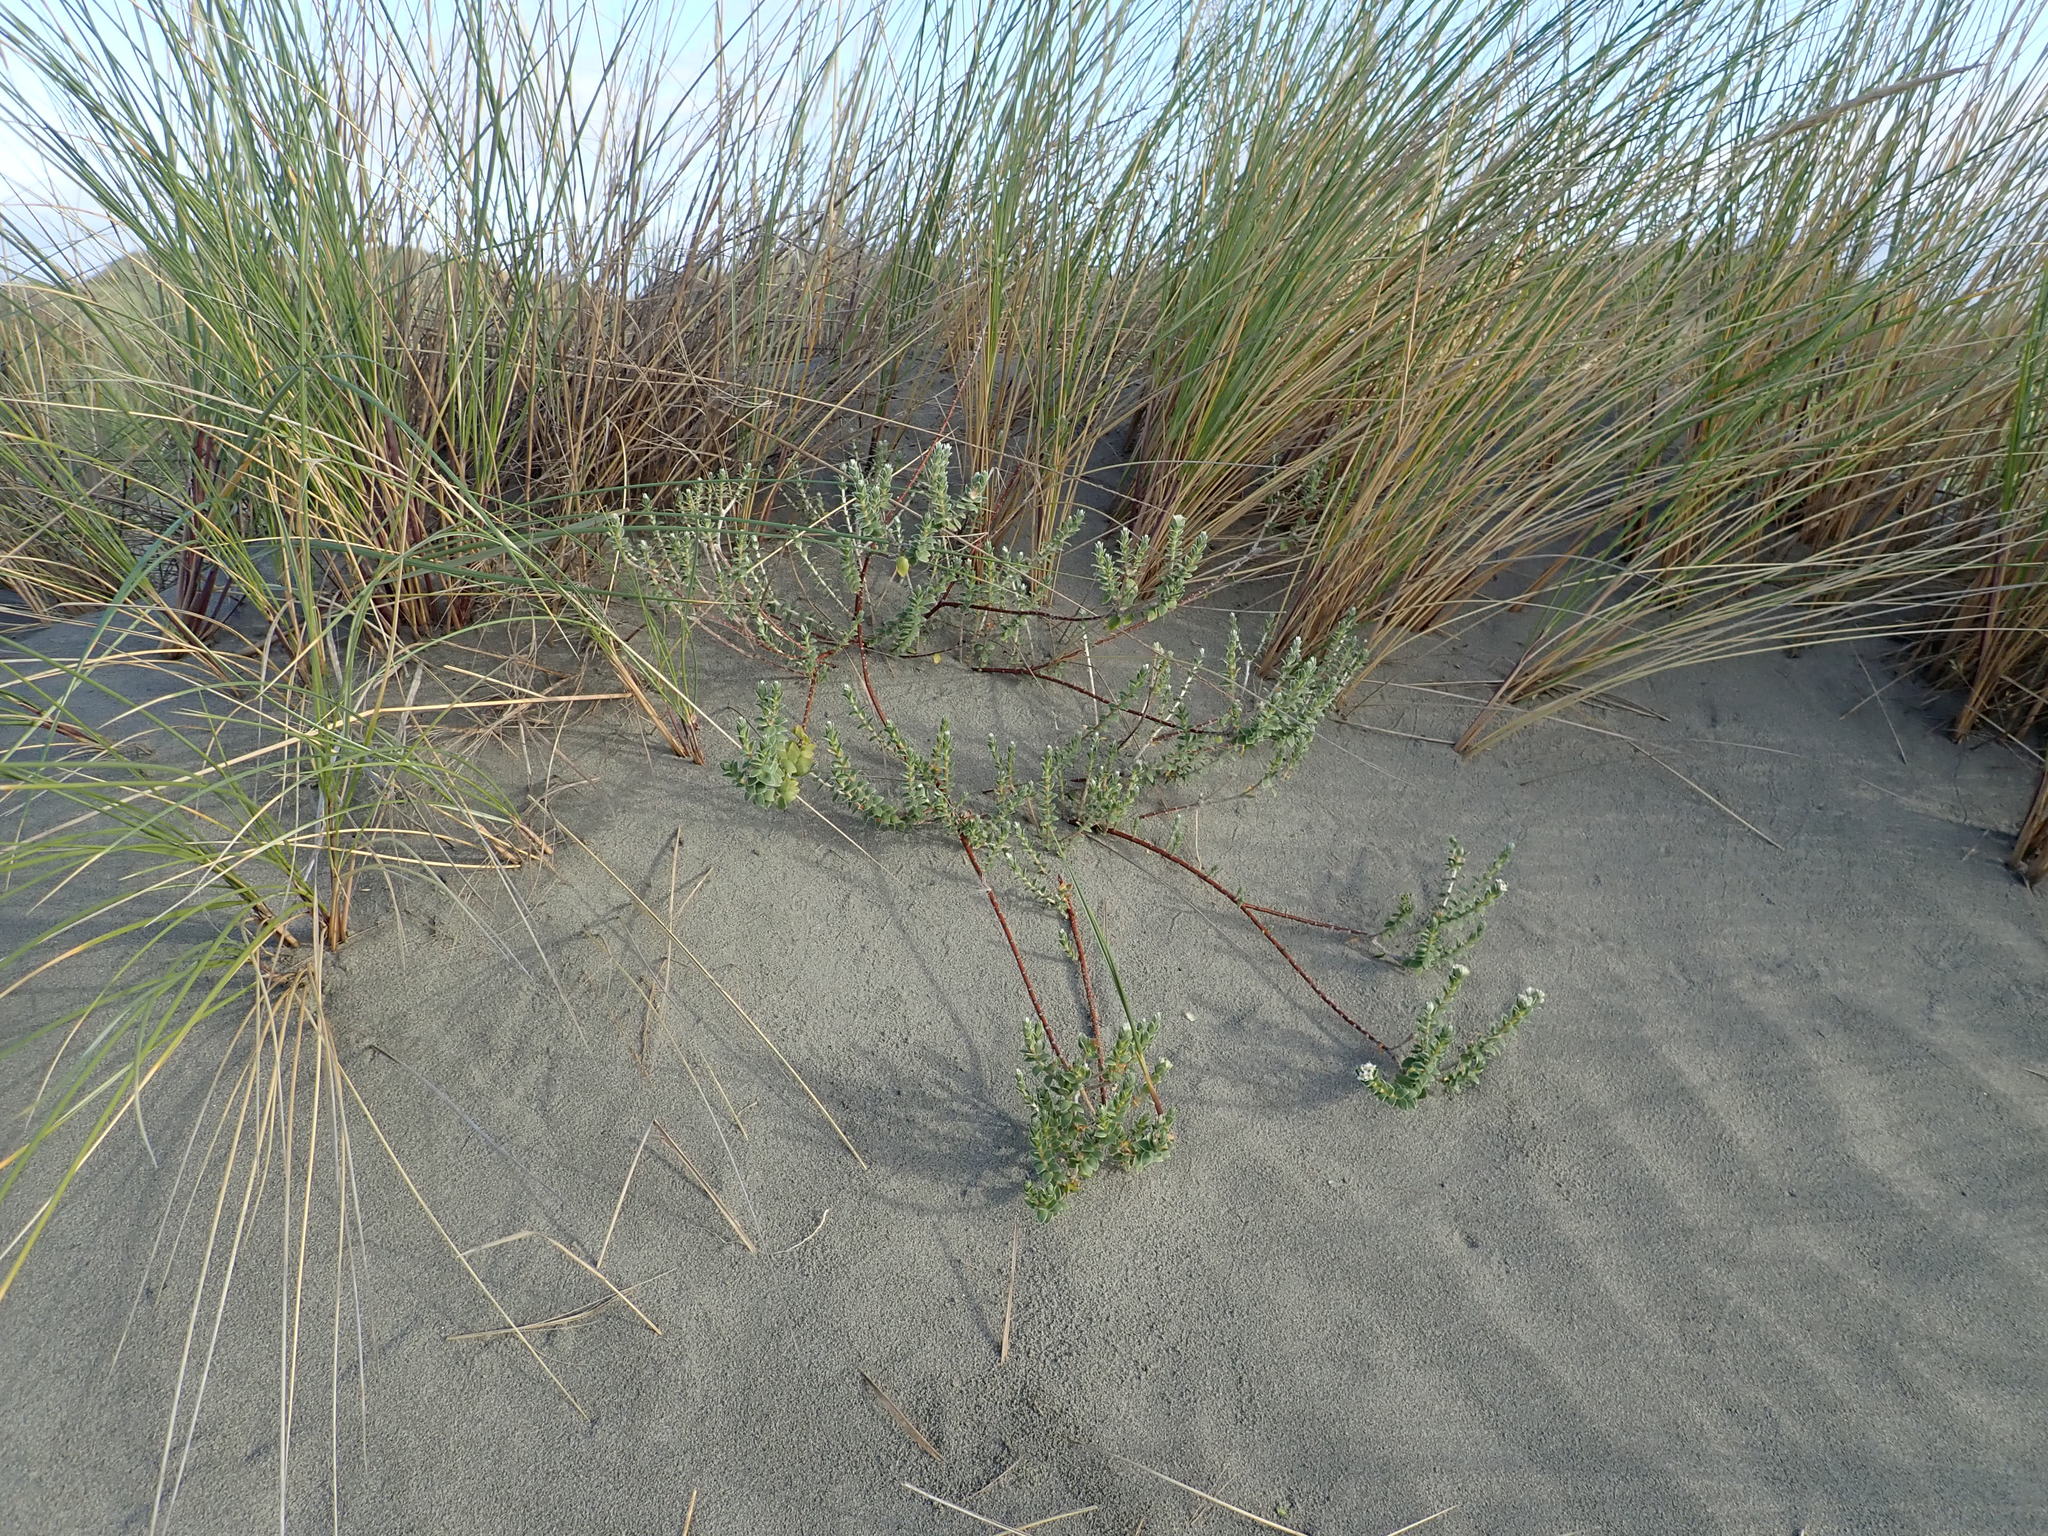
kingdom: Plantae
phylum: Tracheophyta
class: Magnoliopsida
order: Malvales
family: Thymelaeaceae
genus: Pimelea
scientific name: Pimelea villosa
